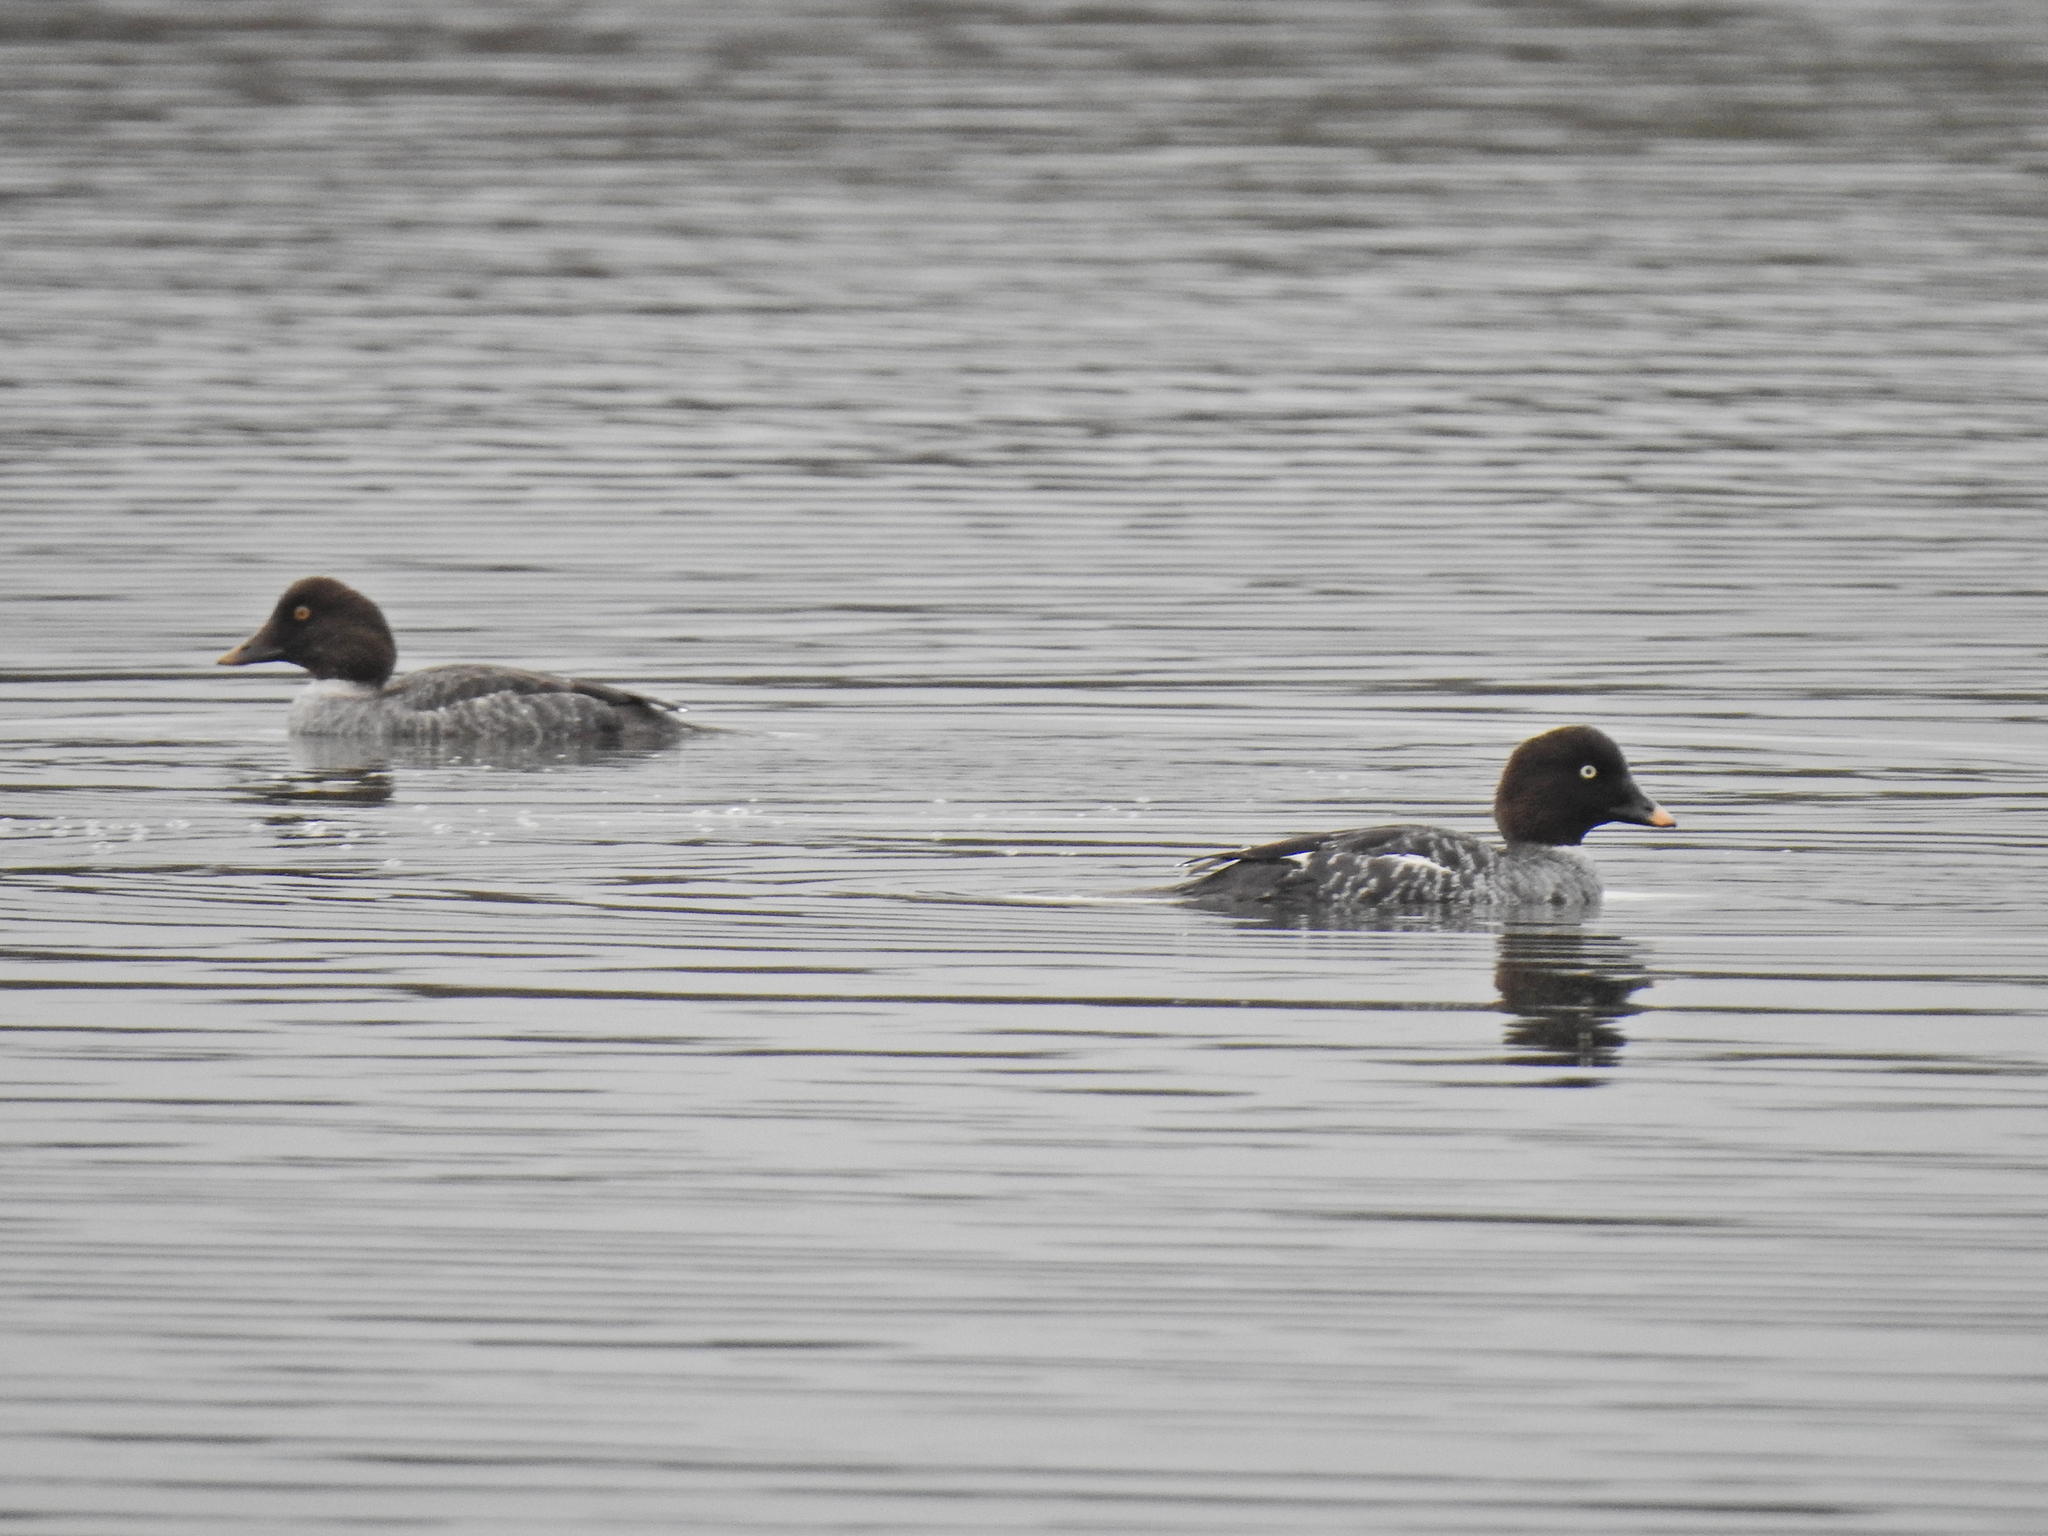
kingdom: Animalia
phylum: Chordata
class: Aves
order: Anseriformes
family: Anatidae
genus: Bucephala
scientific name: Bucephala clangula
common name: Common goldeneye
